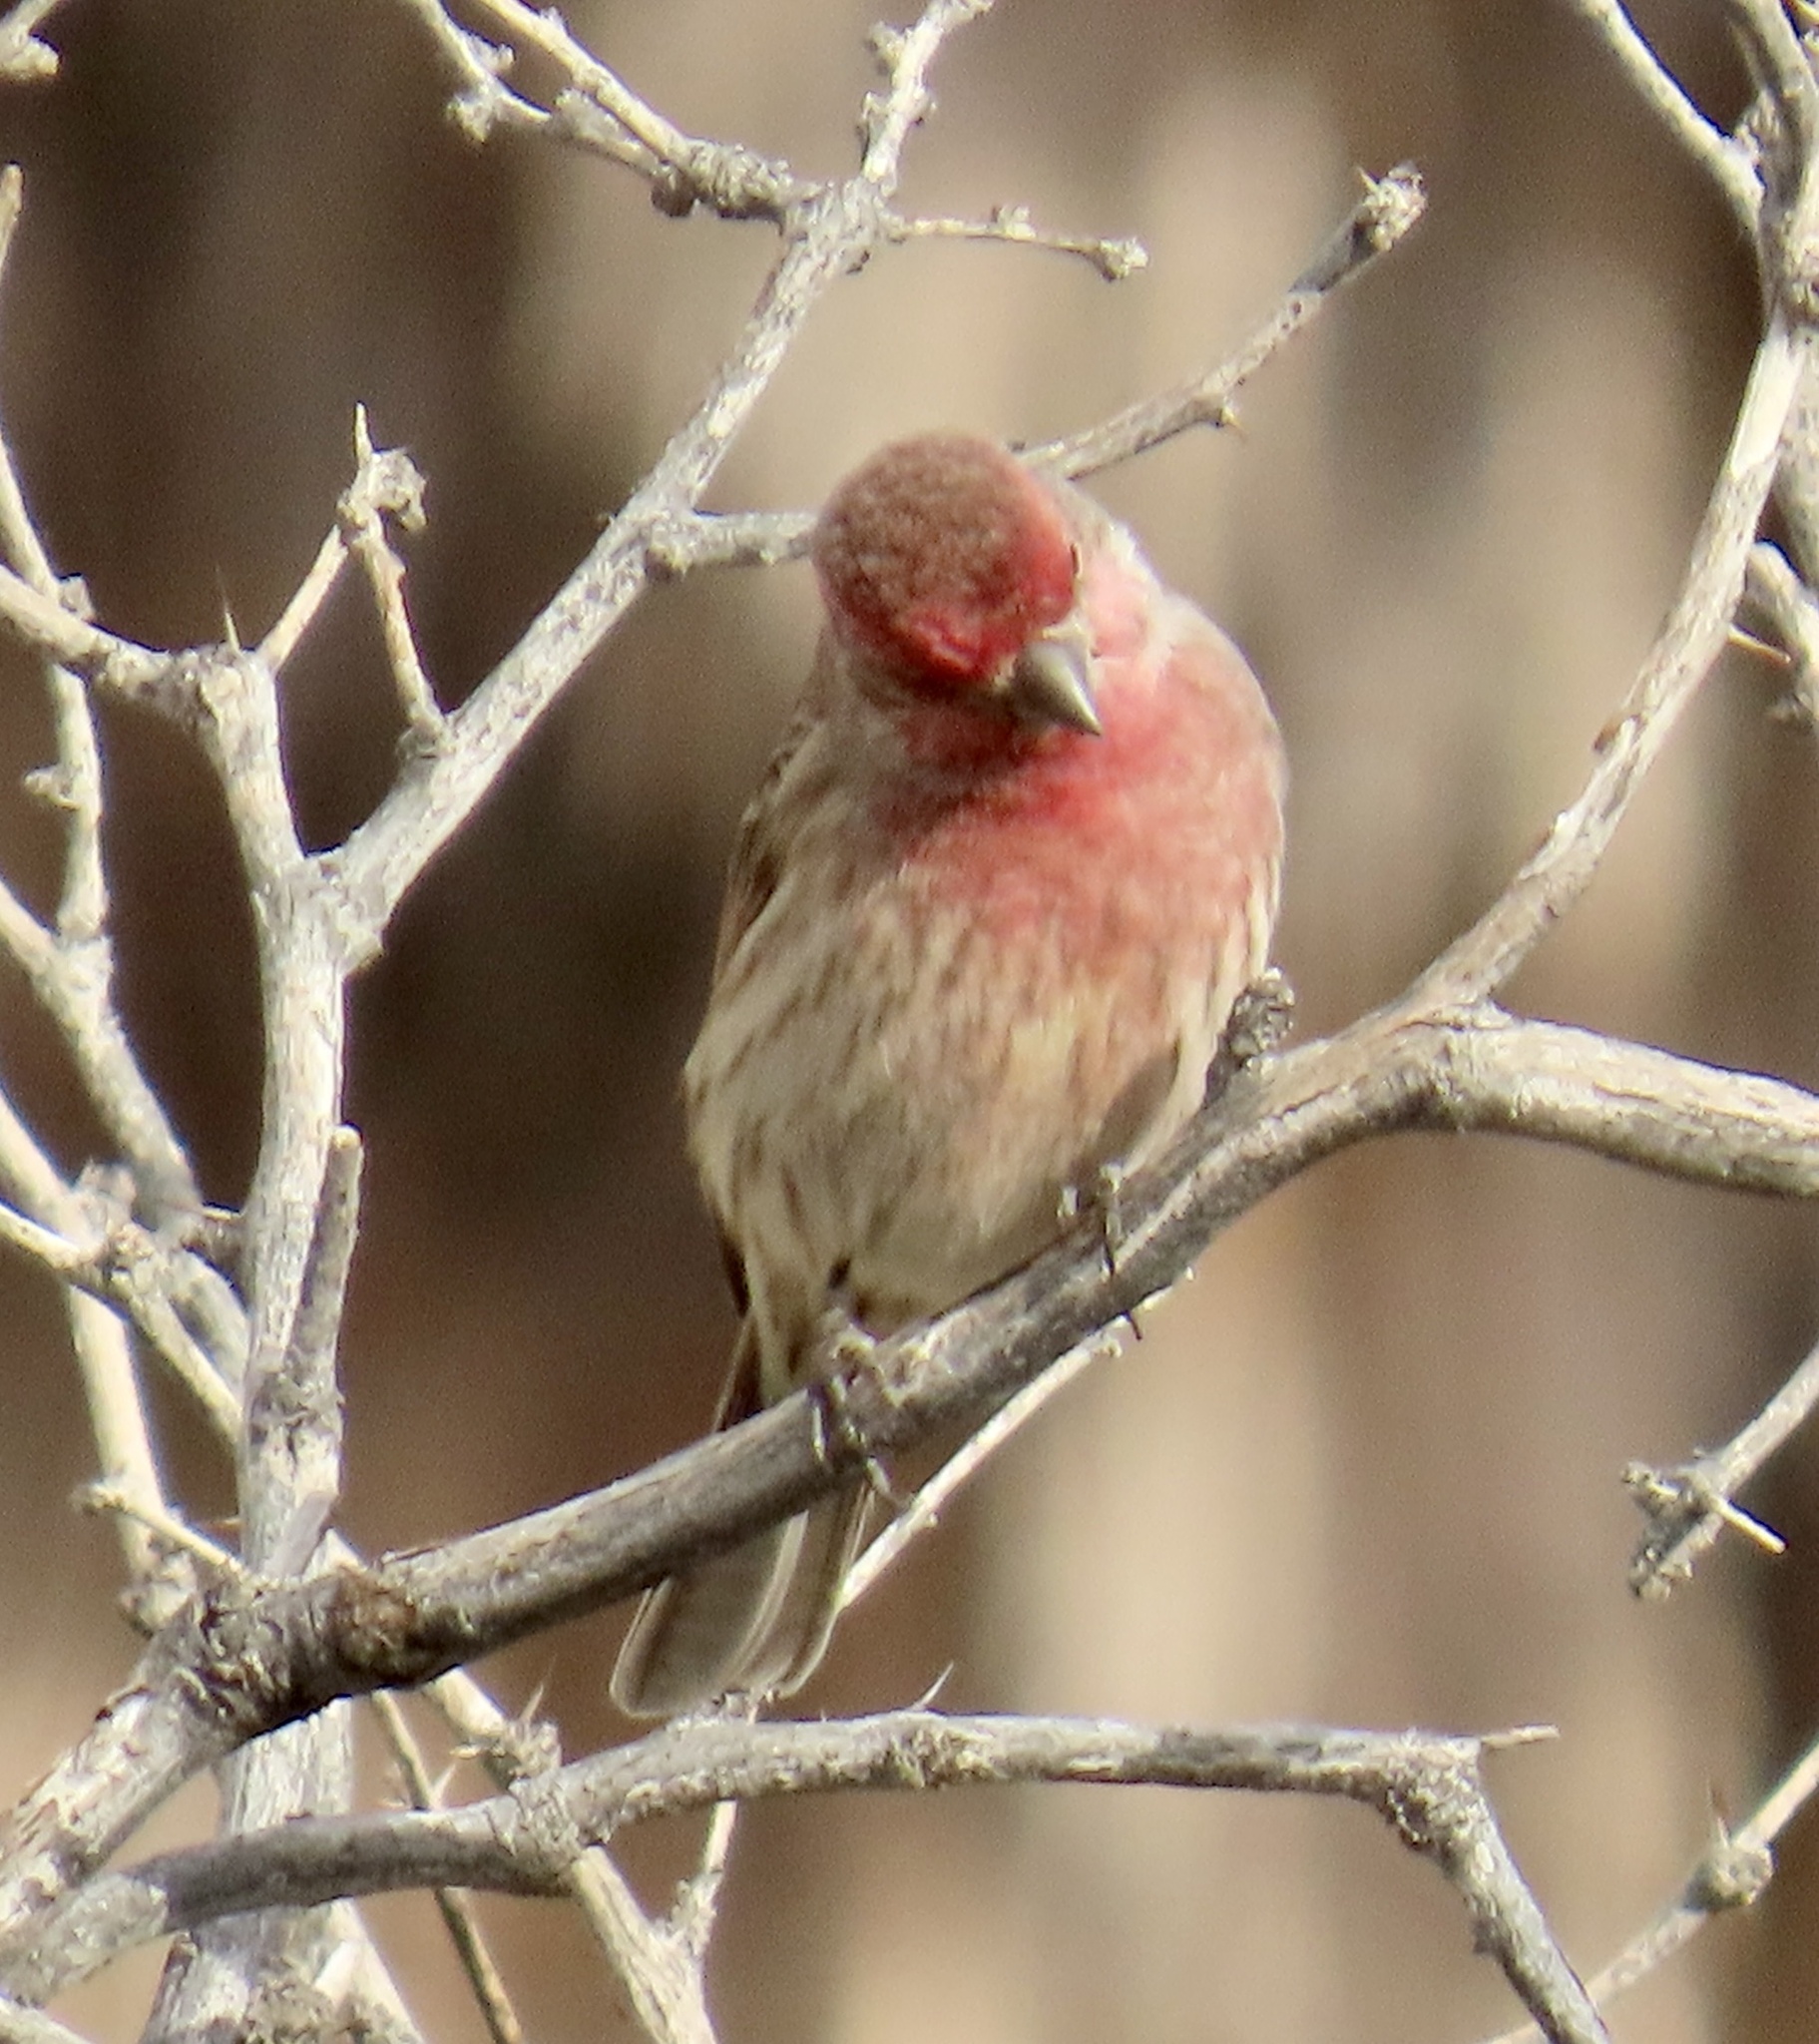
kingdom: Animalia
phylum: Chordata
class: Aves
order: Passeriformes
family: Fringillidae
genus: Haemorhous
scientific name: Haemorhous mexicanus
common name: House finch
